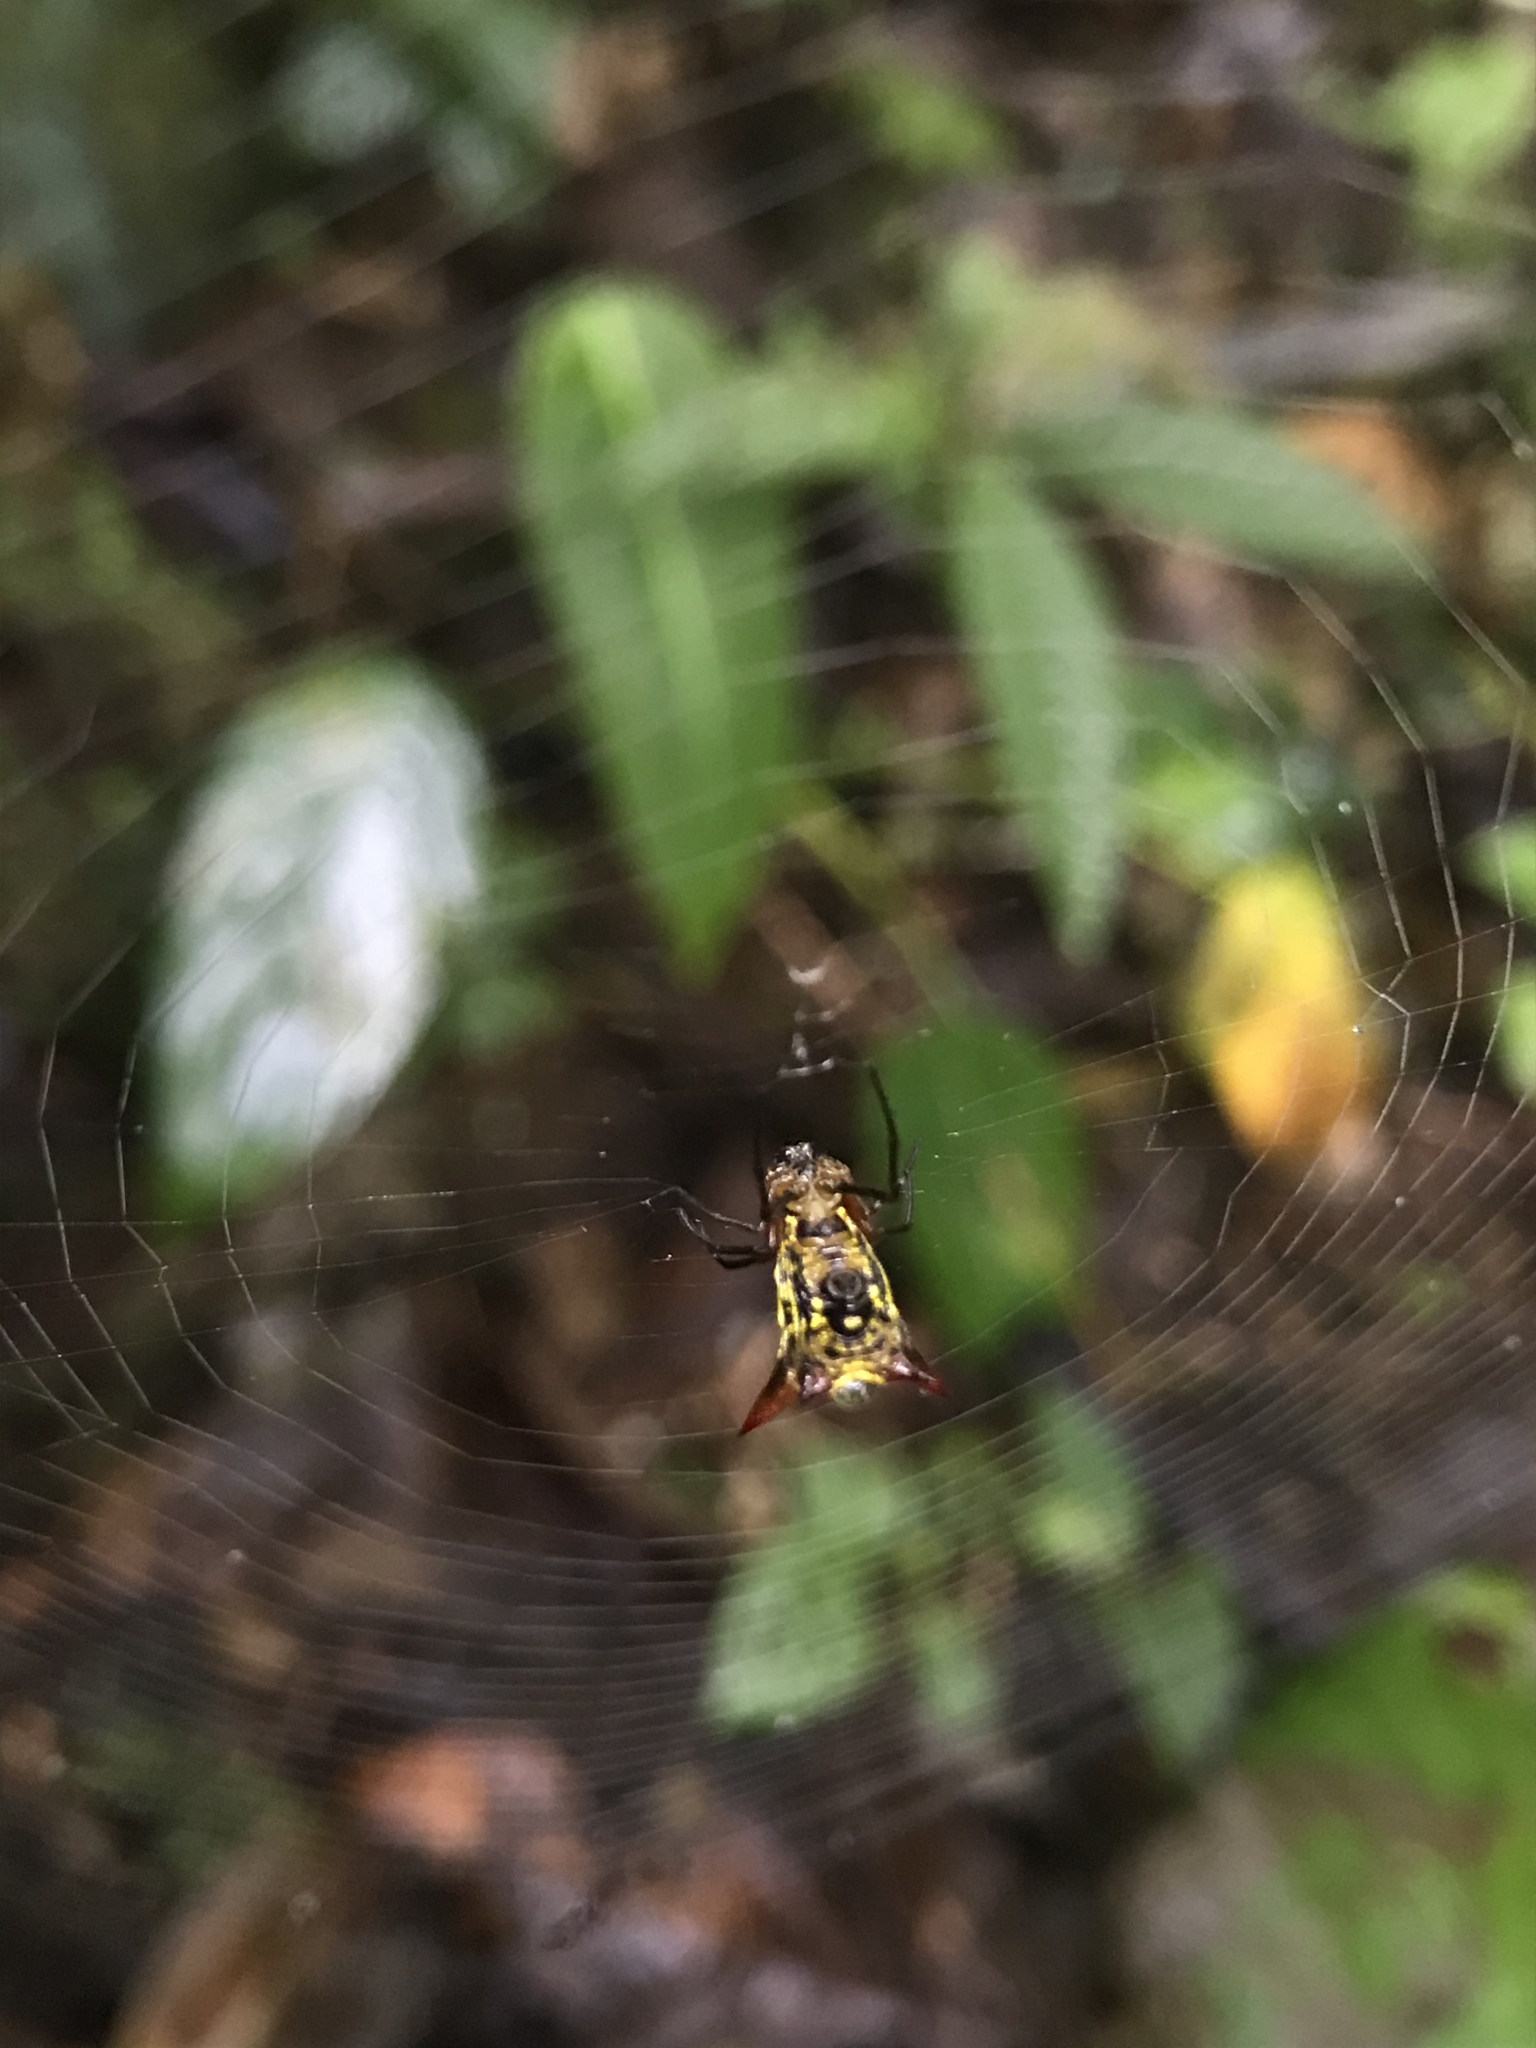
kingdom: Animalia
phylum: Arthropoda
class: Arachnida
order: Araneae
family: Araneidae
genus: Micrathena
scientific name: Micrathena guerini
